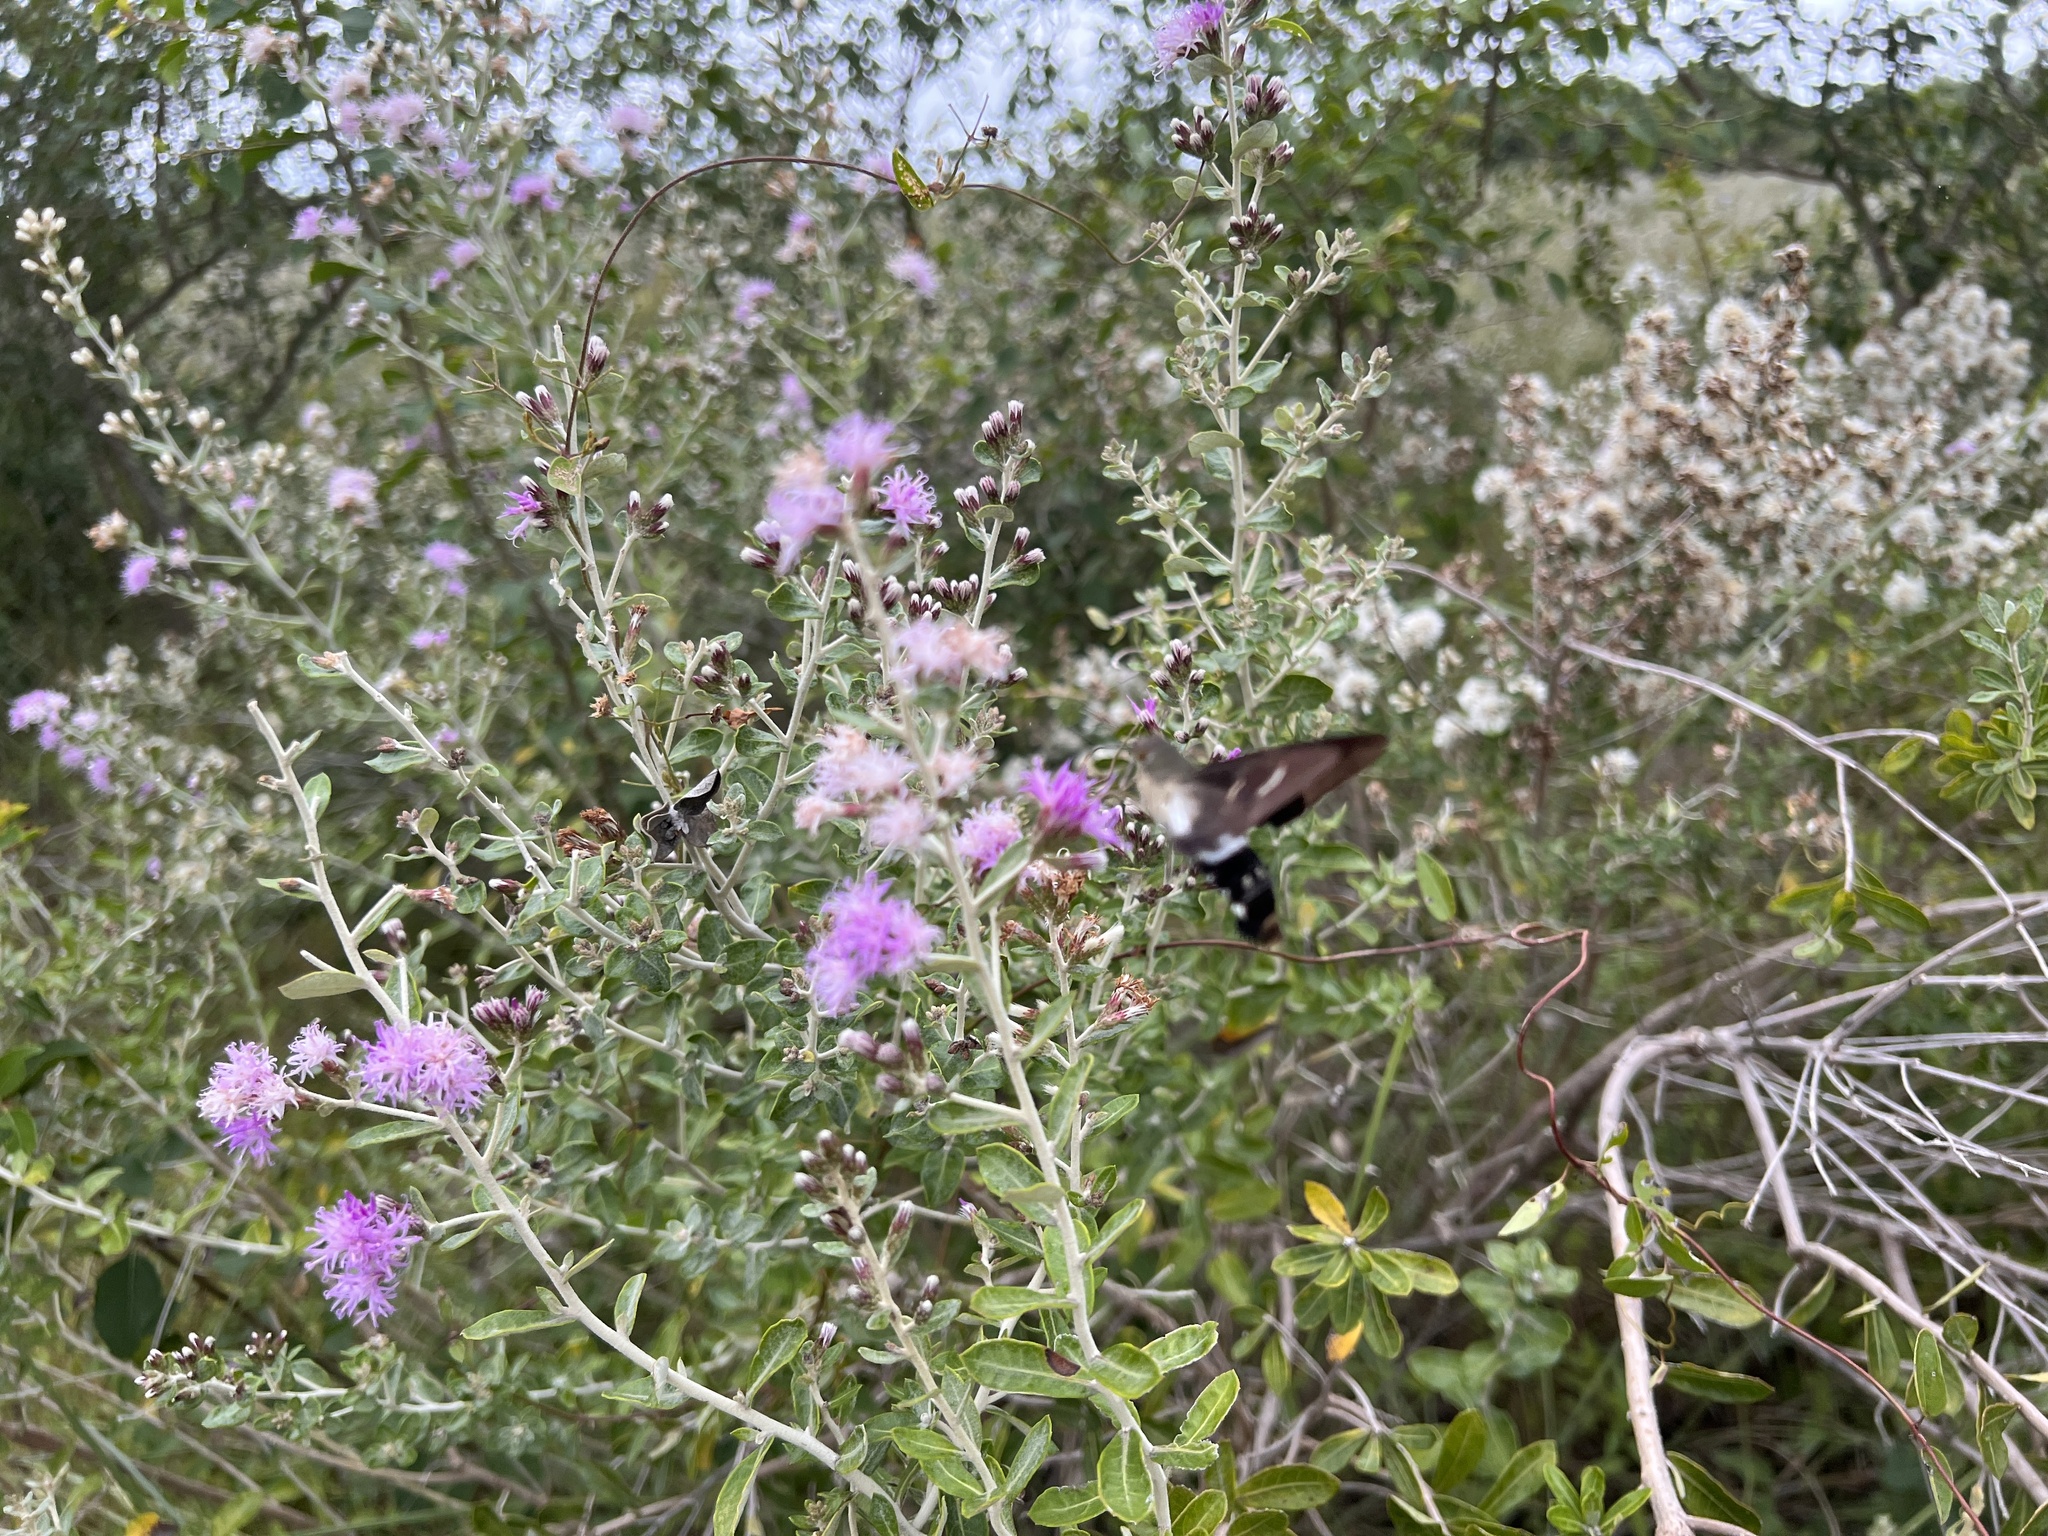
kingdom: Animalia
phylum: Arthropoda
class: Insecta
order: Lepidoptera
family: Sphingidae
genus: Aellopos
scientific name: Aellopos titan
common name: Titan sphinx
